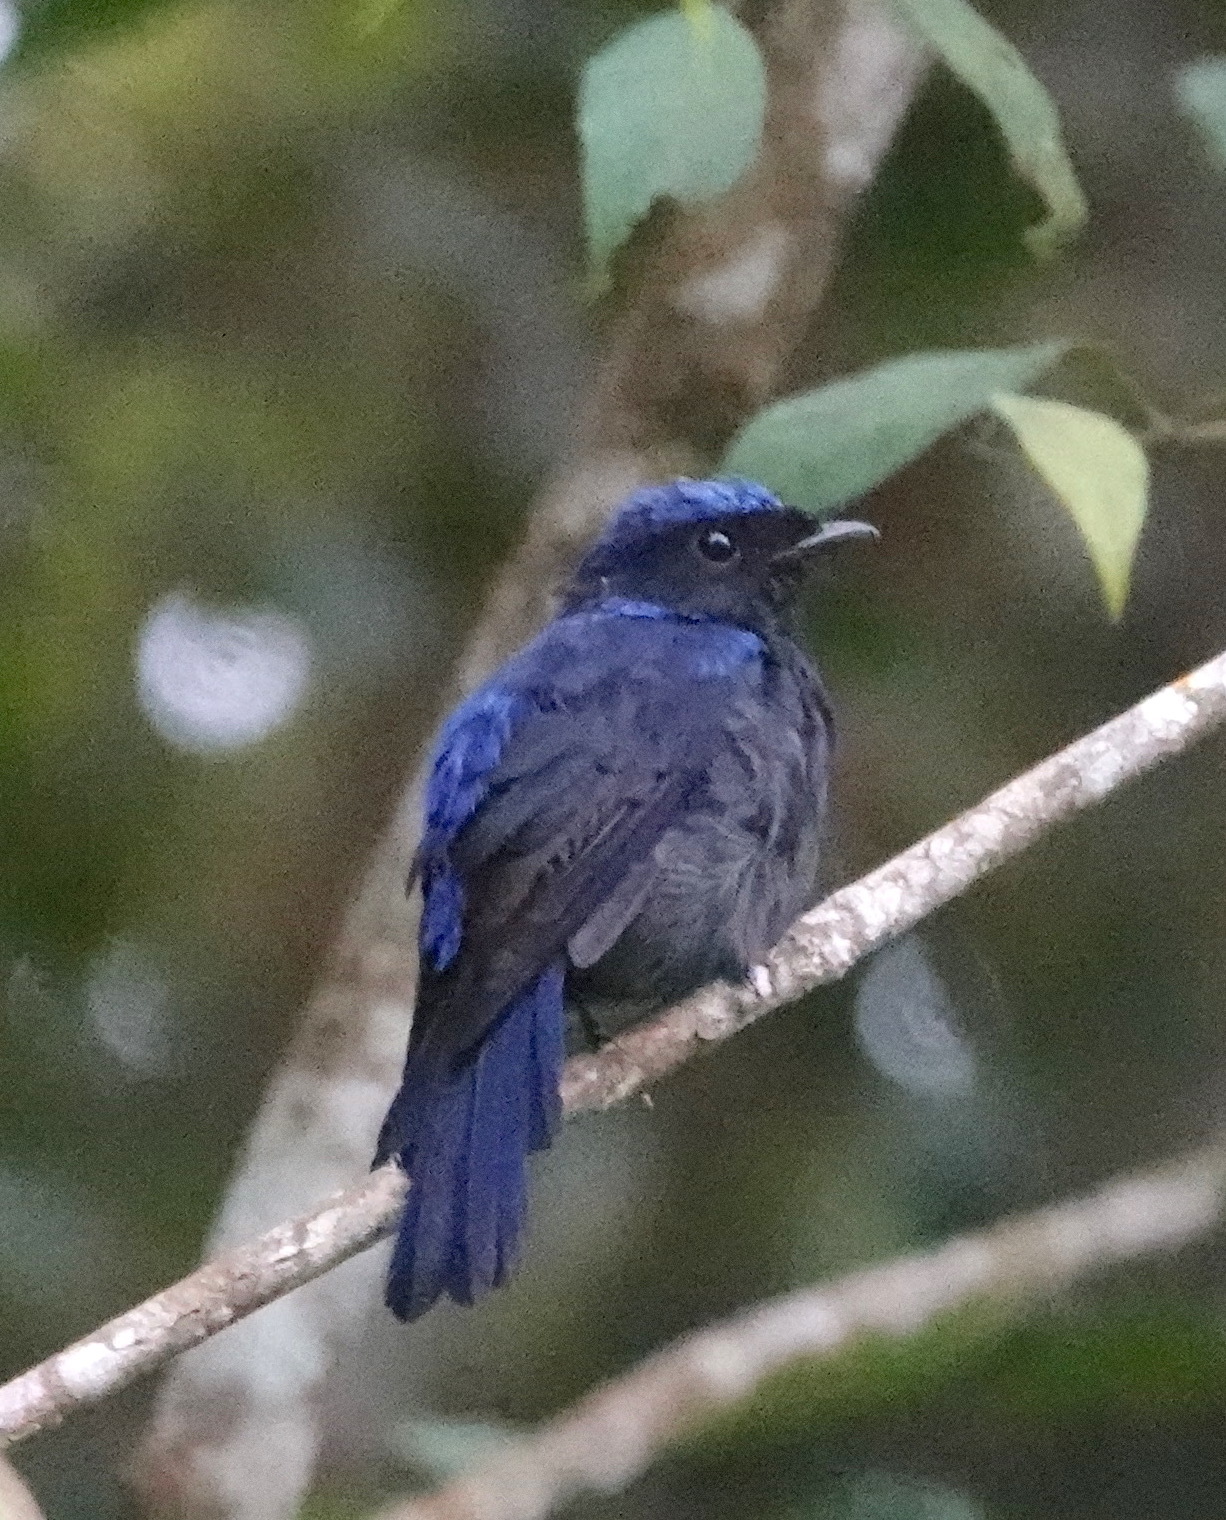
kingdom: Animalia
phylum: Chordata
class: Aves
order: Passeriformes
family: Muscicapidae
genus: Niltava
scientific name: Niltava grandis
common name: Large niltava
